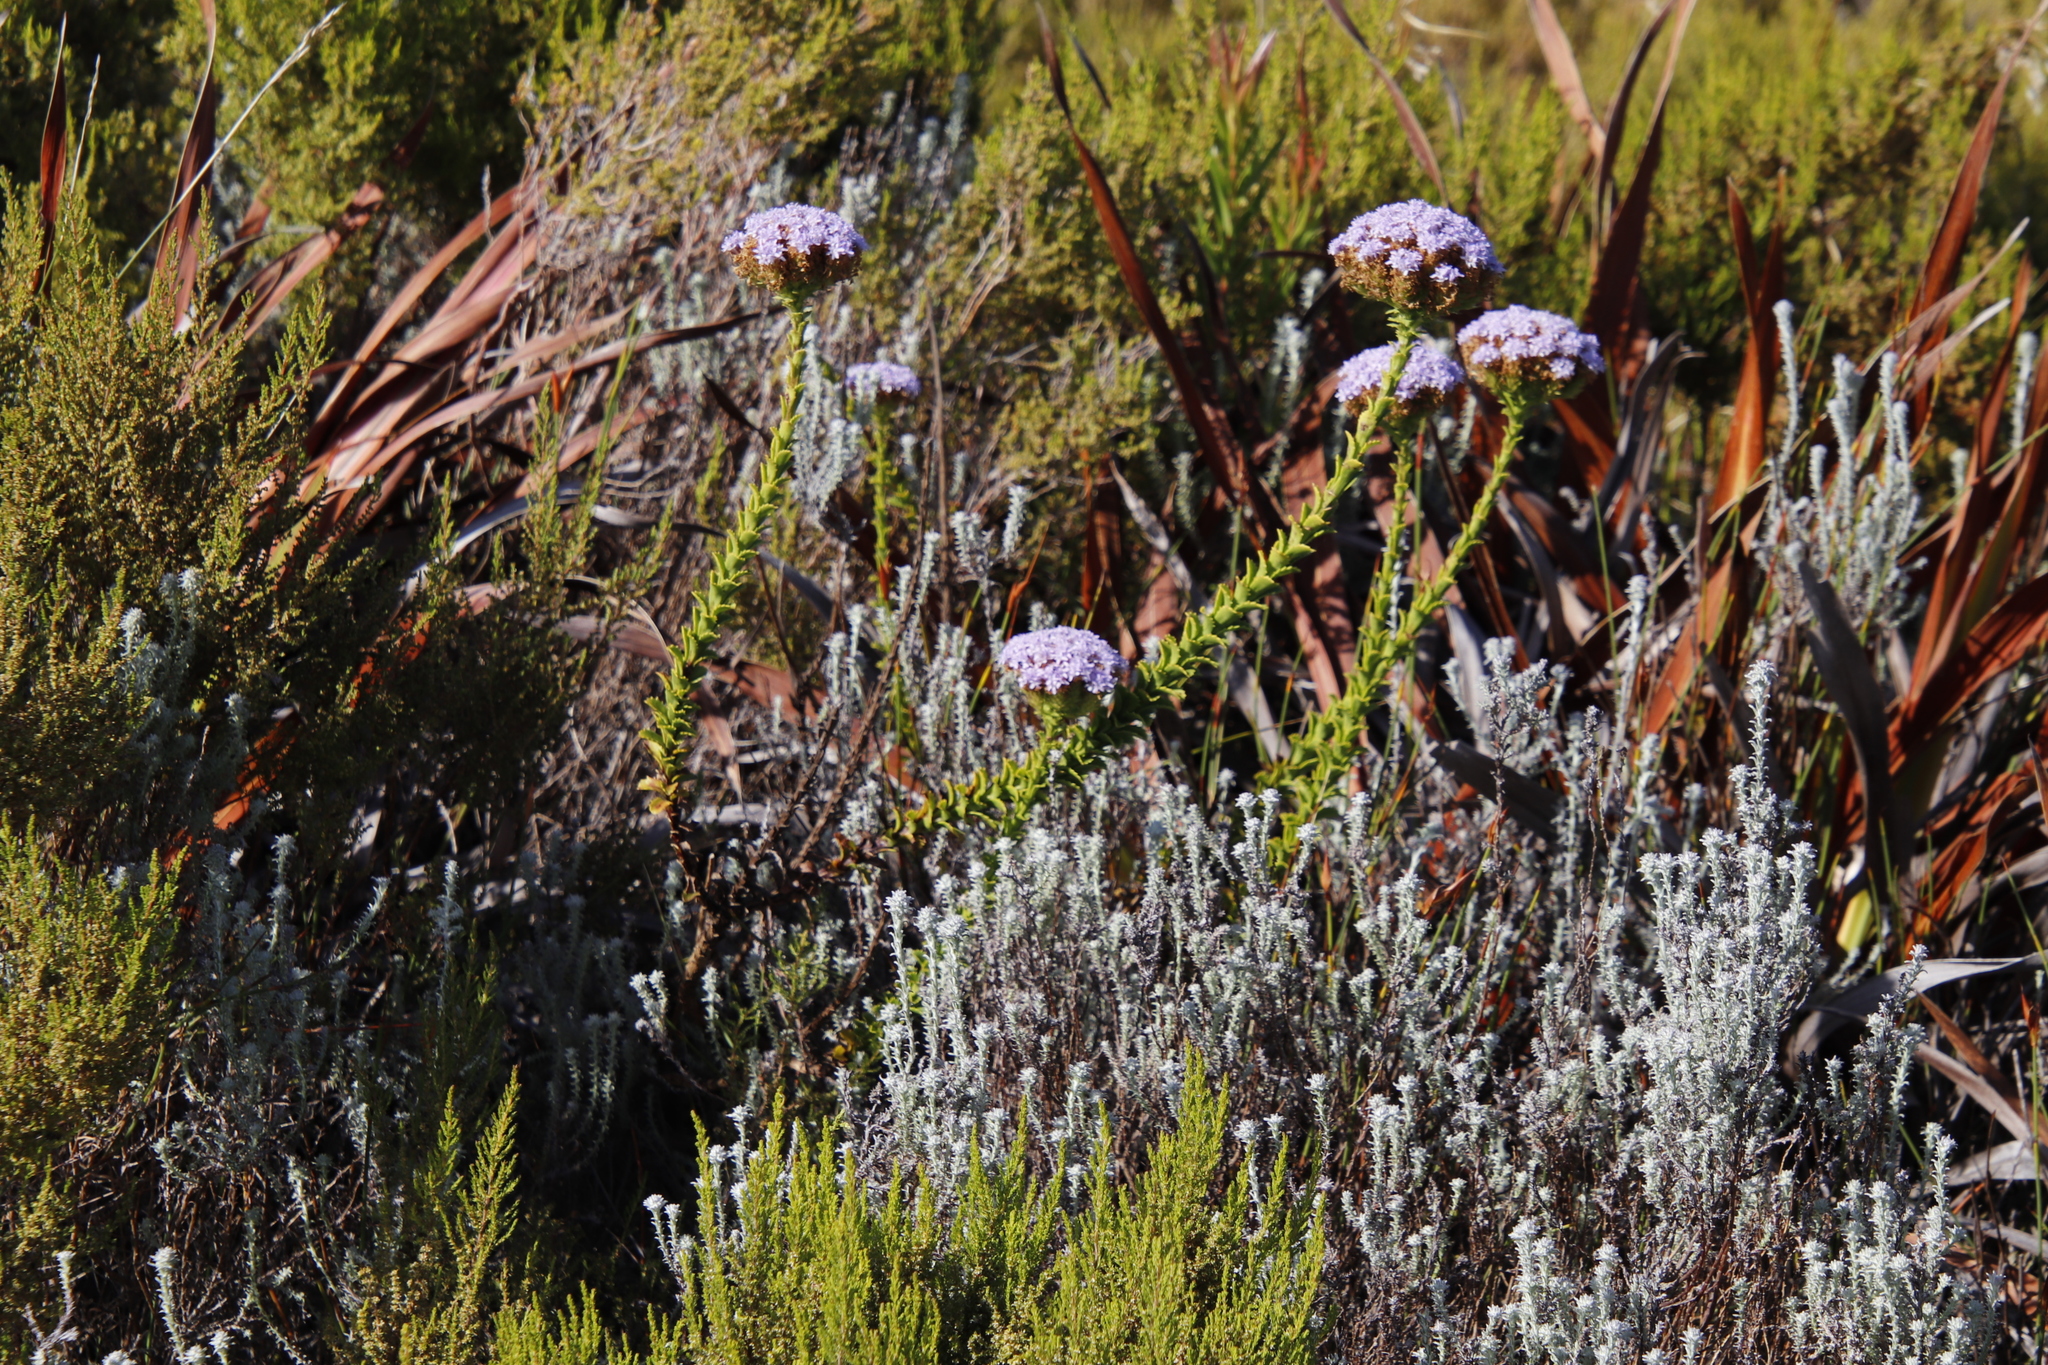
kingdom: Plantae
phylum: Tracheophyta
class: Magnoliopsida
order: Lamiales
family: Scrophulariaceae
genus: Pseudoselago
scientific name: Pseudoselago serrata
